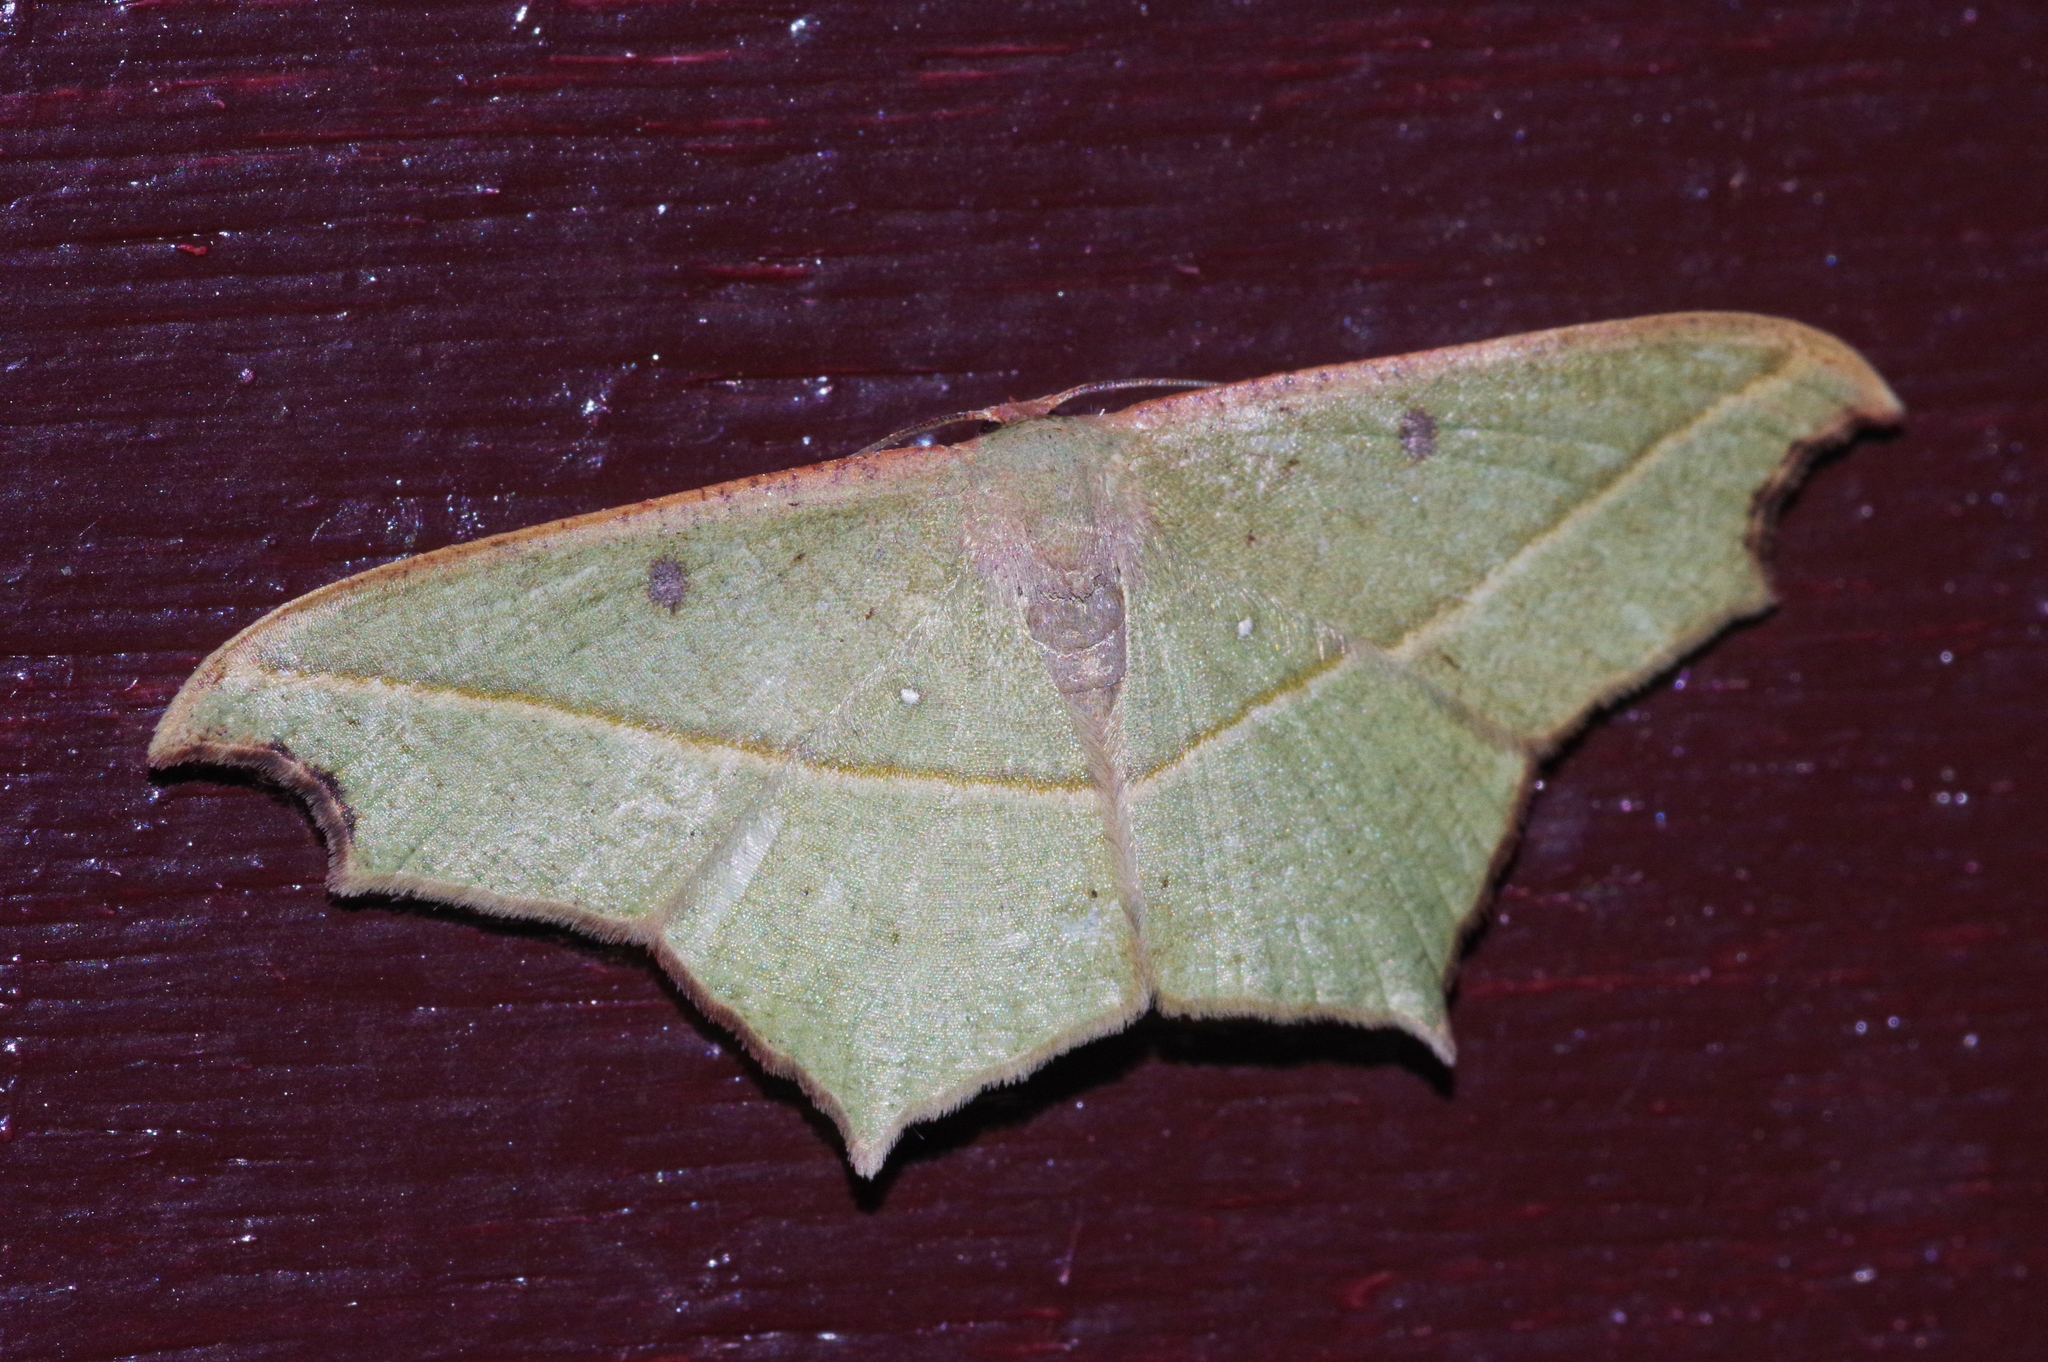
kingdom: Animalia
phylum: Arthropoda
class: Insecta
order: Lepidoptera
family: Geometridae
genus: Traminda
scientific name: Traminda aventiaria
